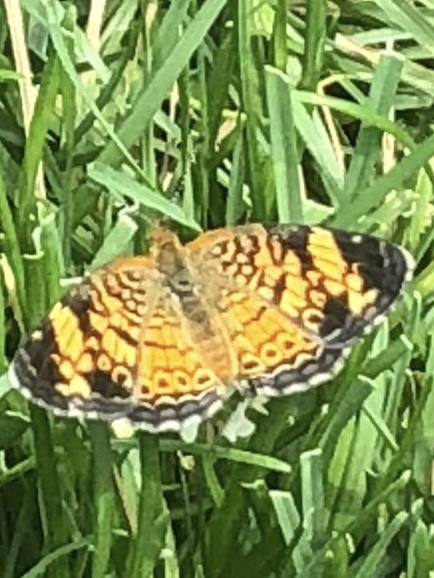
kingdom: Animalia
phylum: Arthropoda
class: Insecta
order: Lepidoptera
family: Nymphalidae
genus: Phyciodes
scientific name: Phyciodes tharos
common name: Pearl crescent
